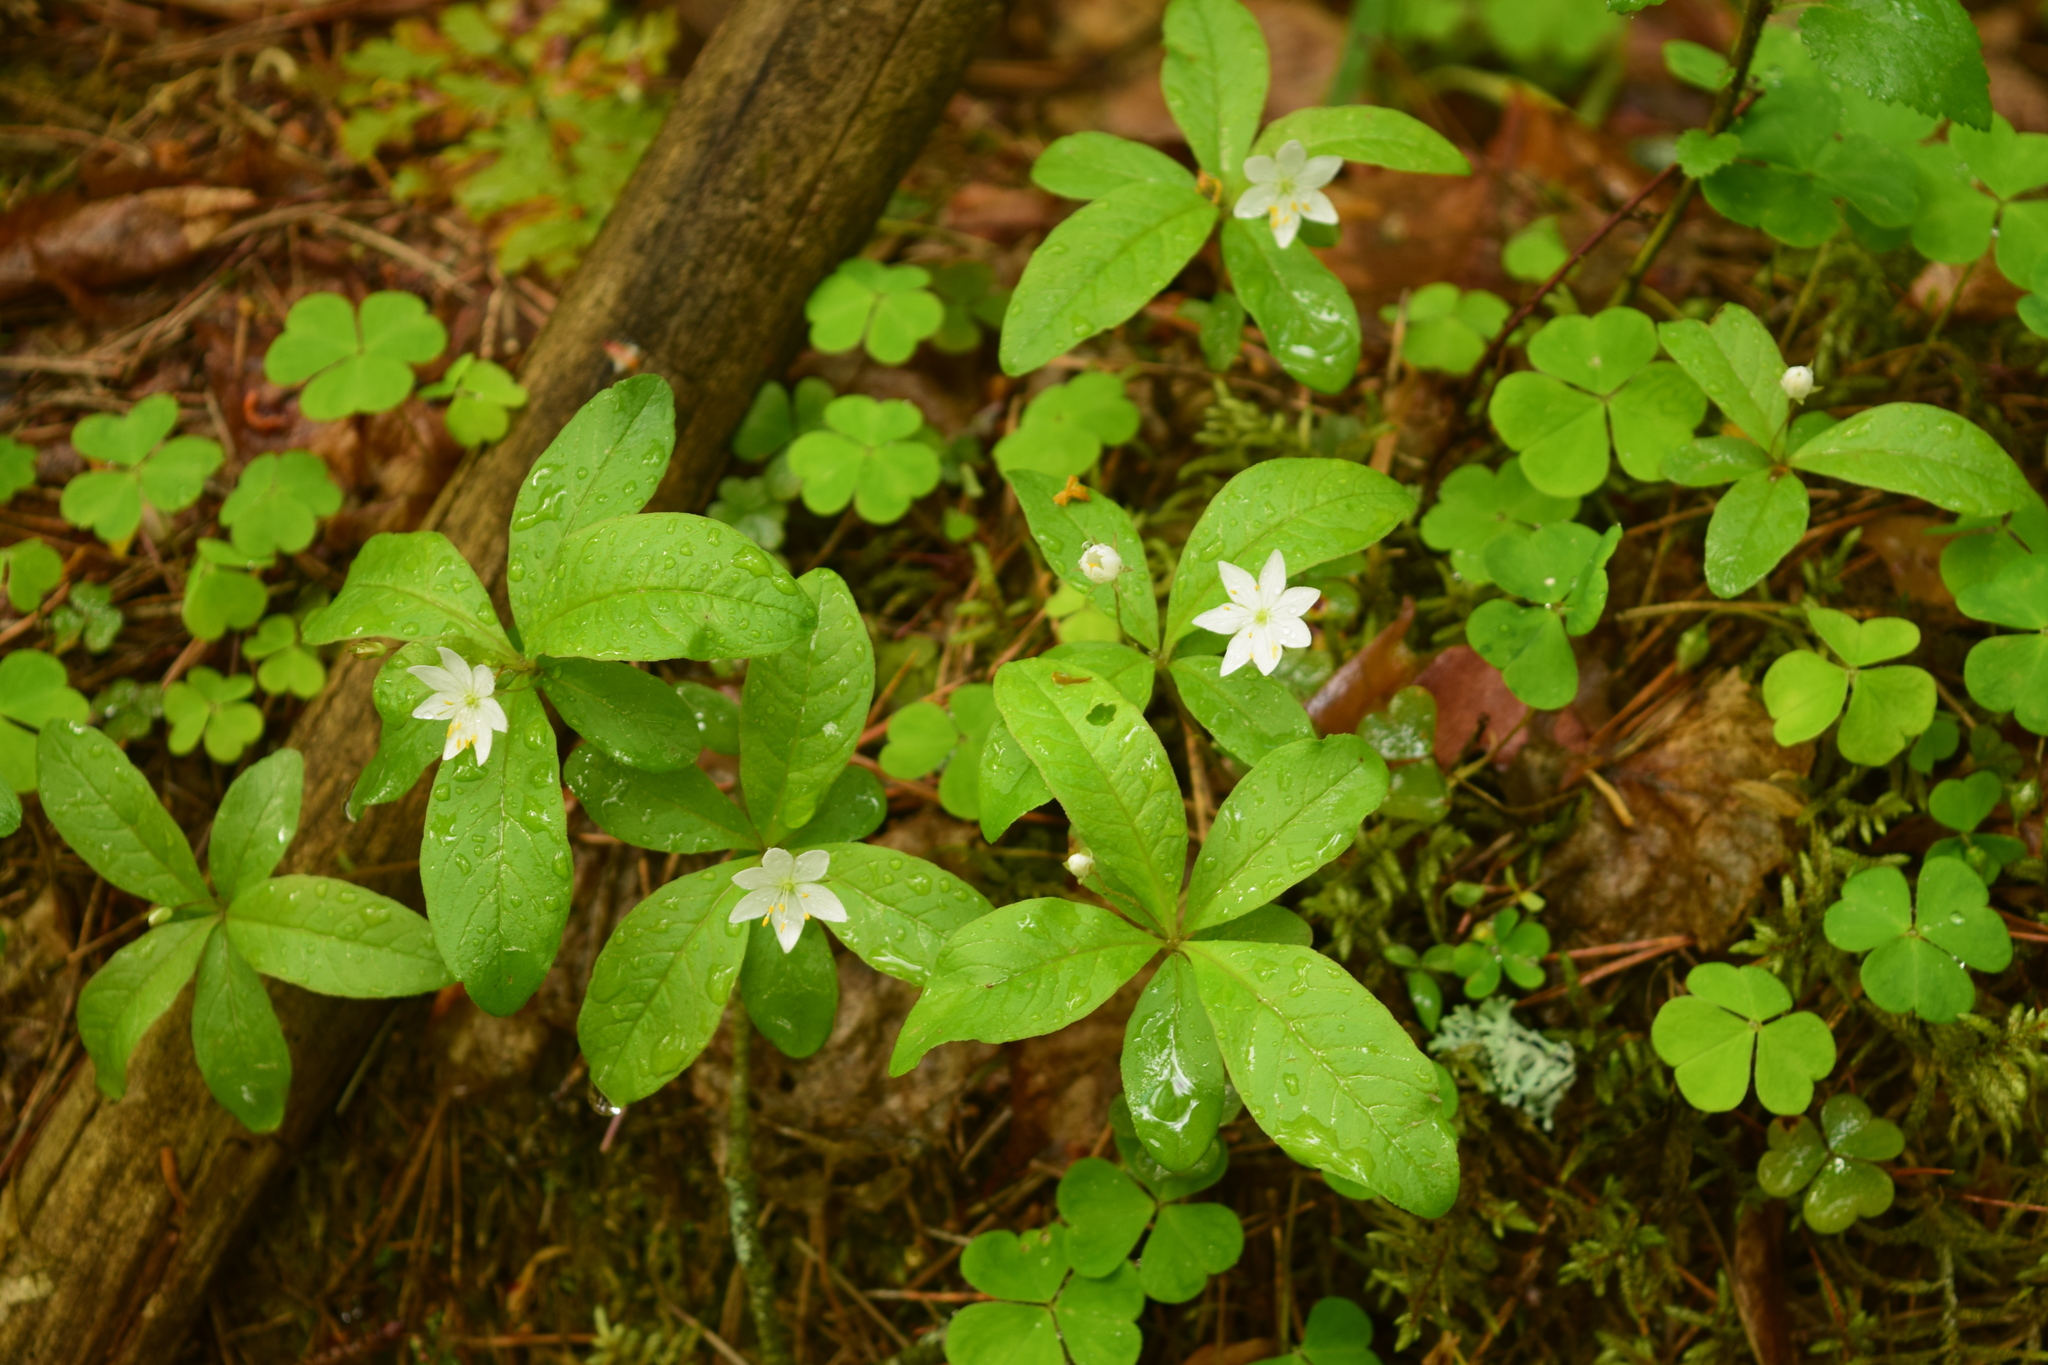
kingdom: Plantae
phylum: Tracheophyta
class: Magnoliopsida
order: Ericales
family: Primulaceae
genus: Lysimachia
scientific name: Lysimachia europaea
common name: Arctic starflower
